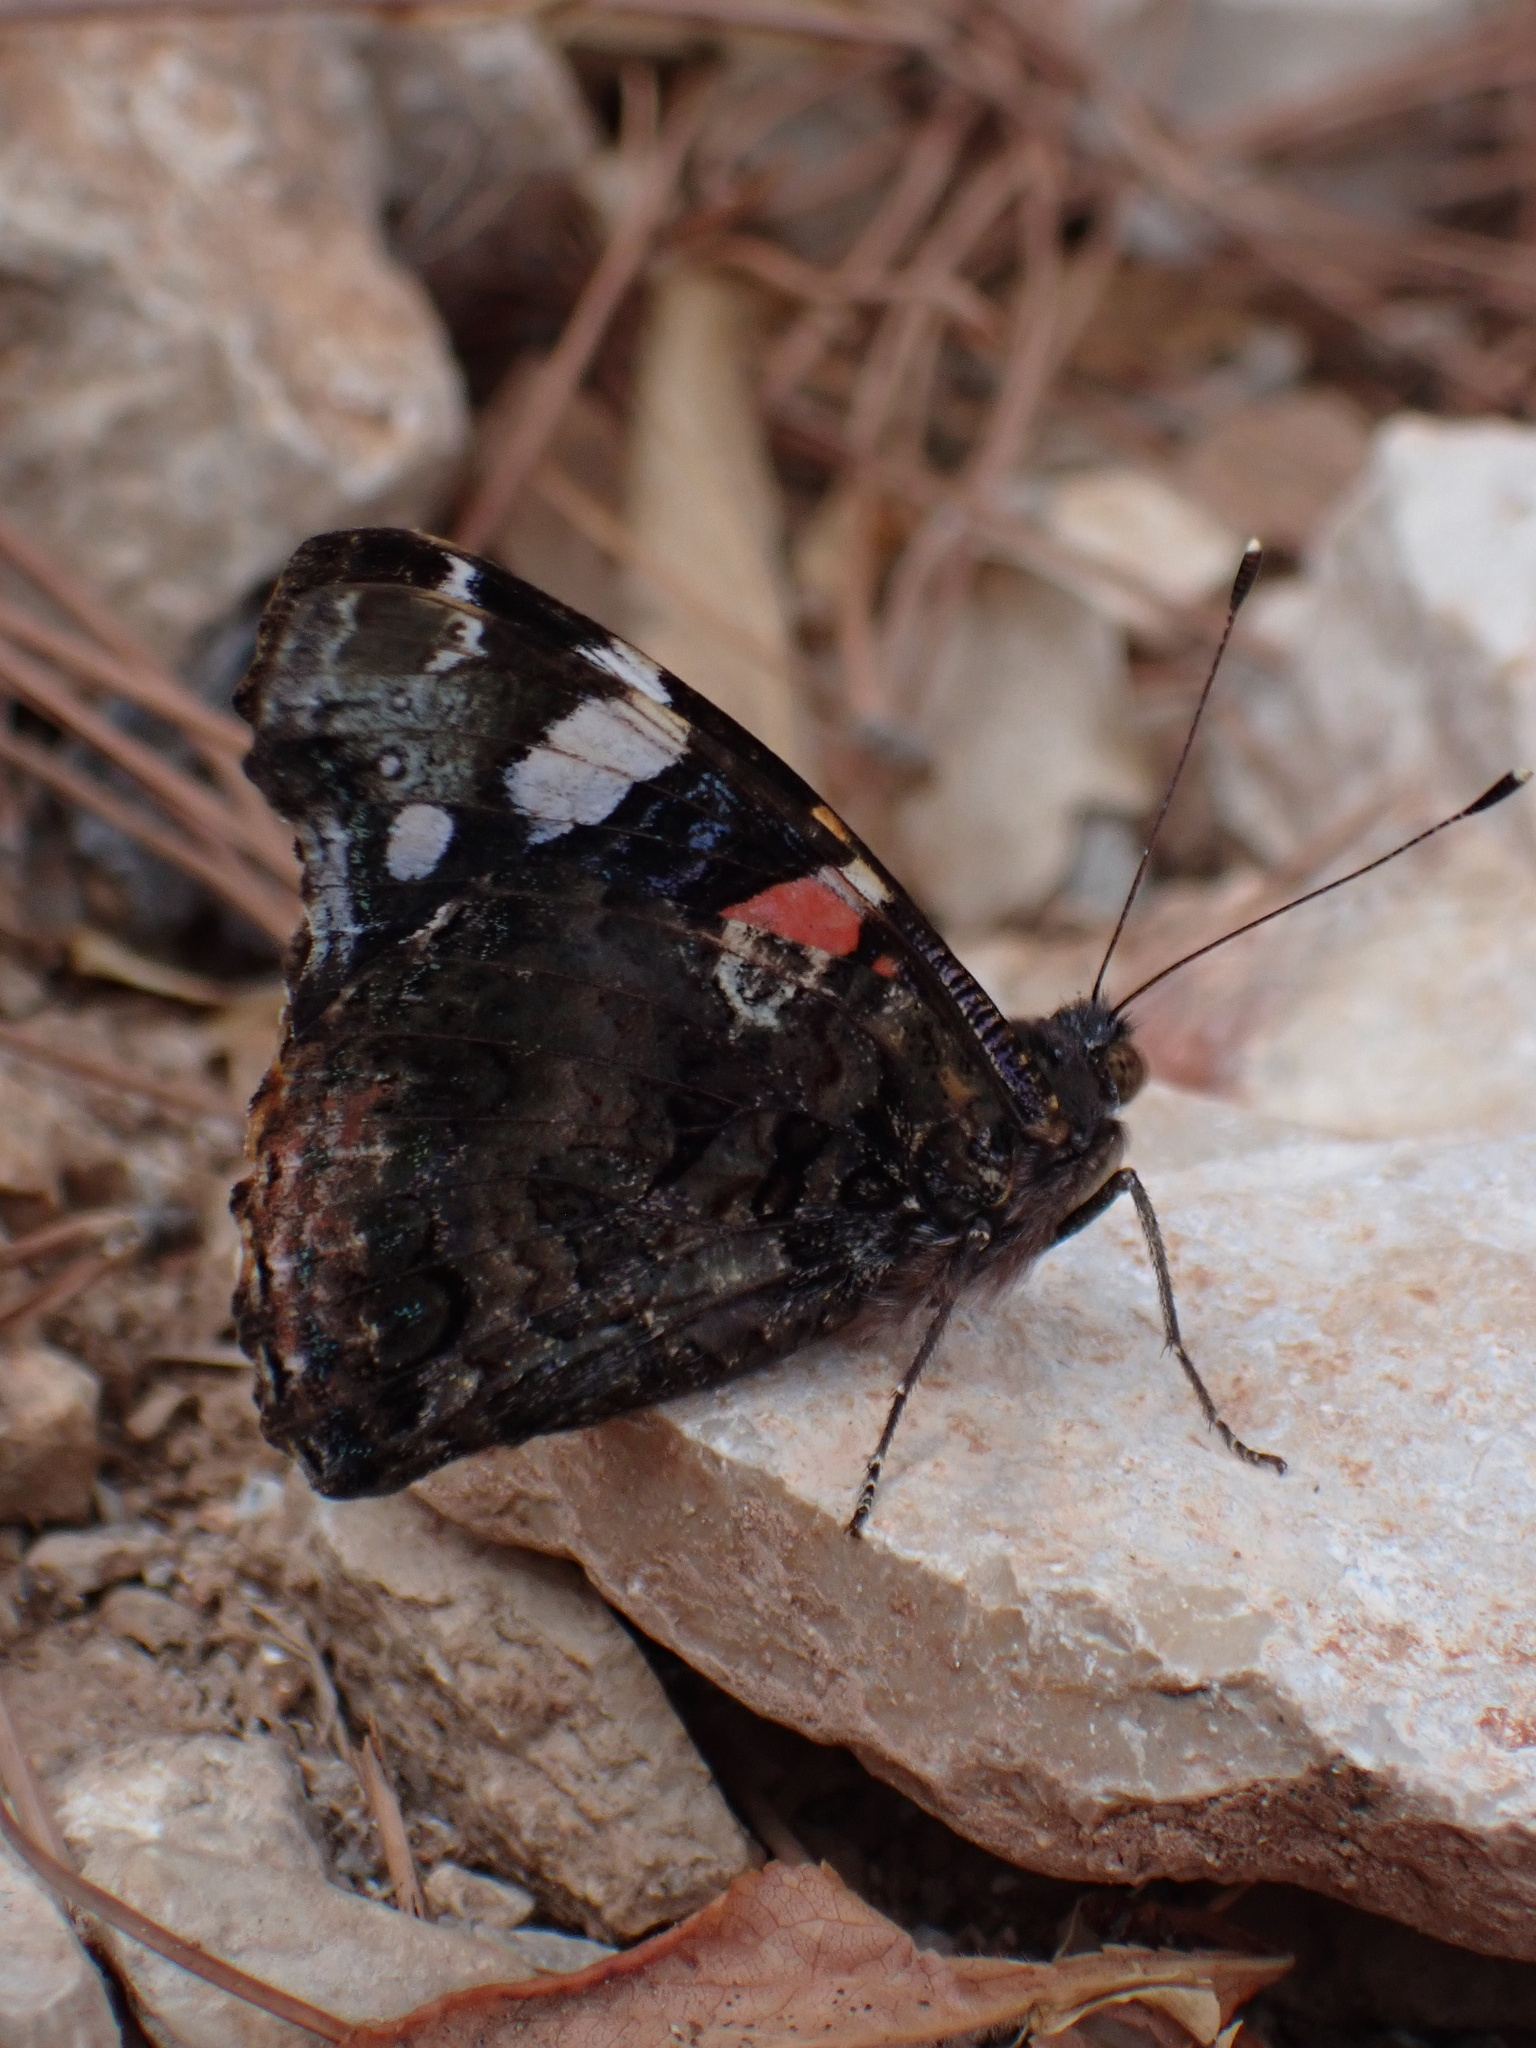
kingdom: Animalia
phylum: Arthropoda
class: Insecta
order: Lepidoptera
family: Nymphalidae
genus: Vanessa
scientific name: Vanessa atalanta
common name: Red admiral
